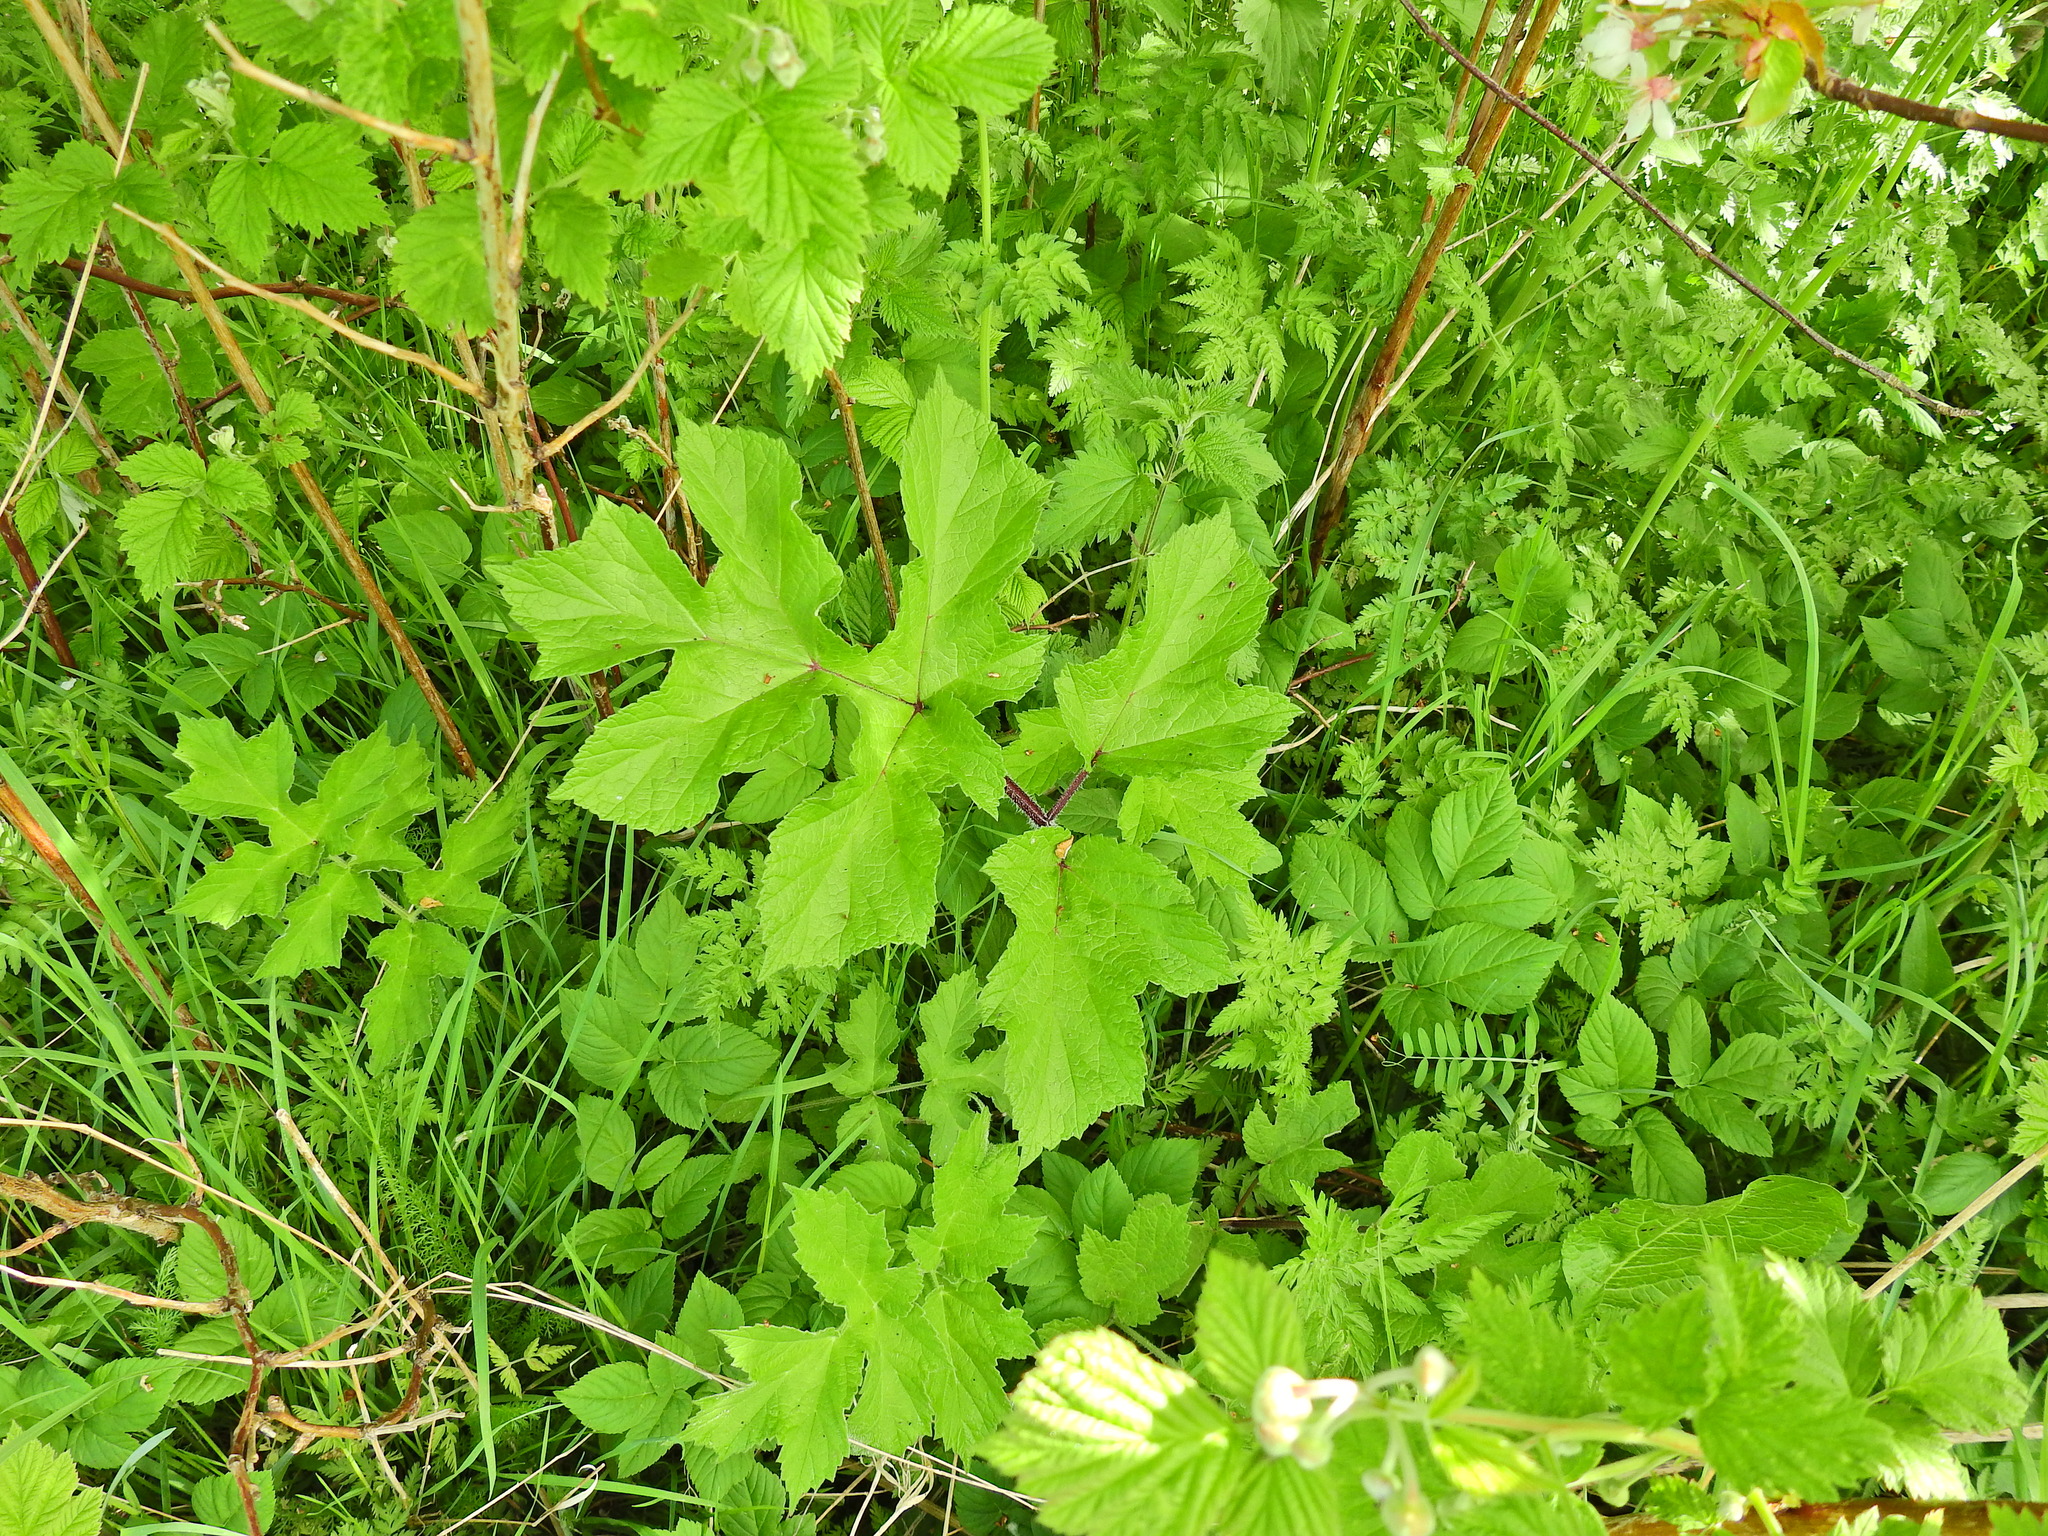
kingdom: Plantae
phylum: Tracheophyta
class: Magnoliopsida
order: Apiales
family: Apiaceae
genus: Heracleum
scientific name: Heracleum sphondylium
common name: Hogweed
